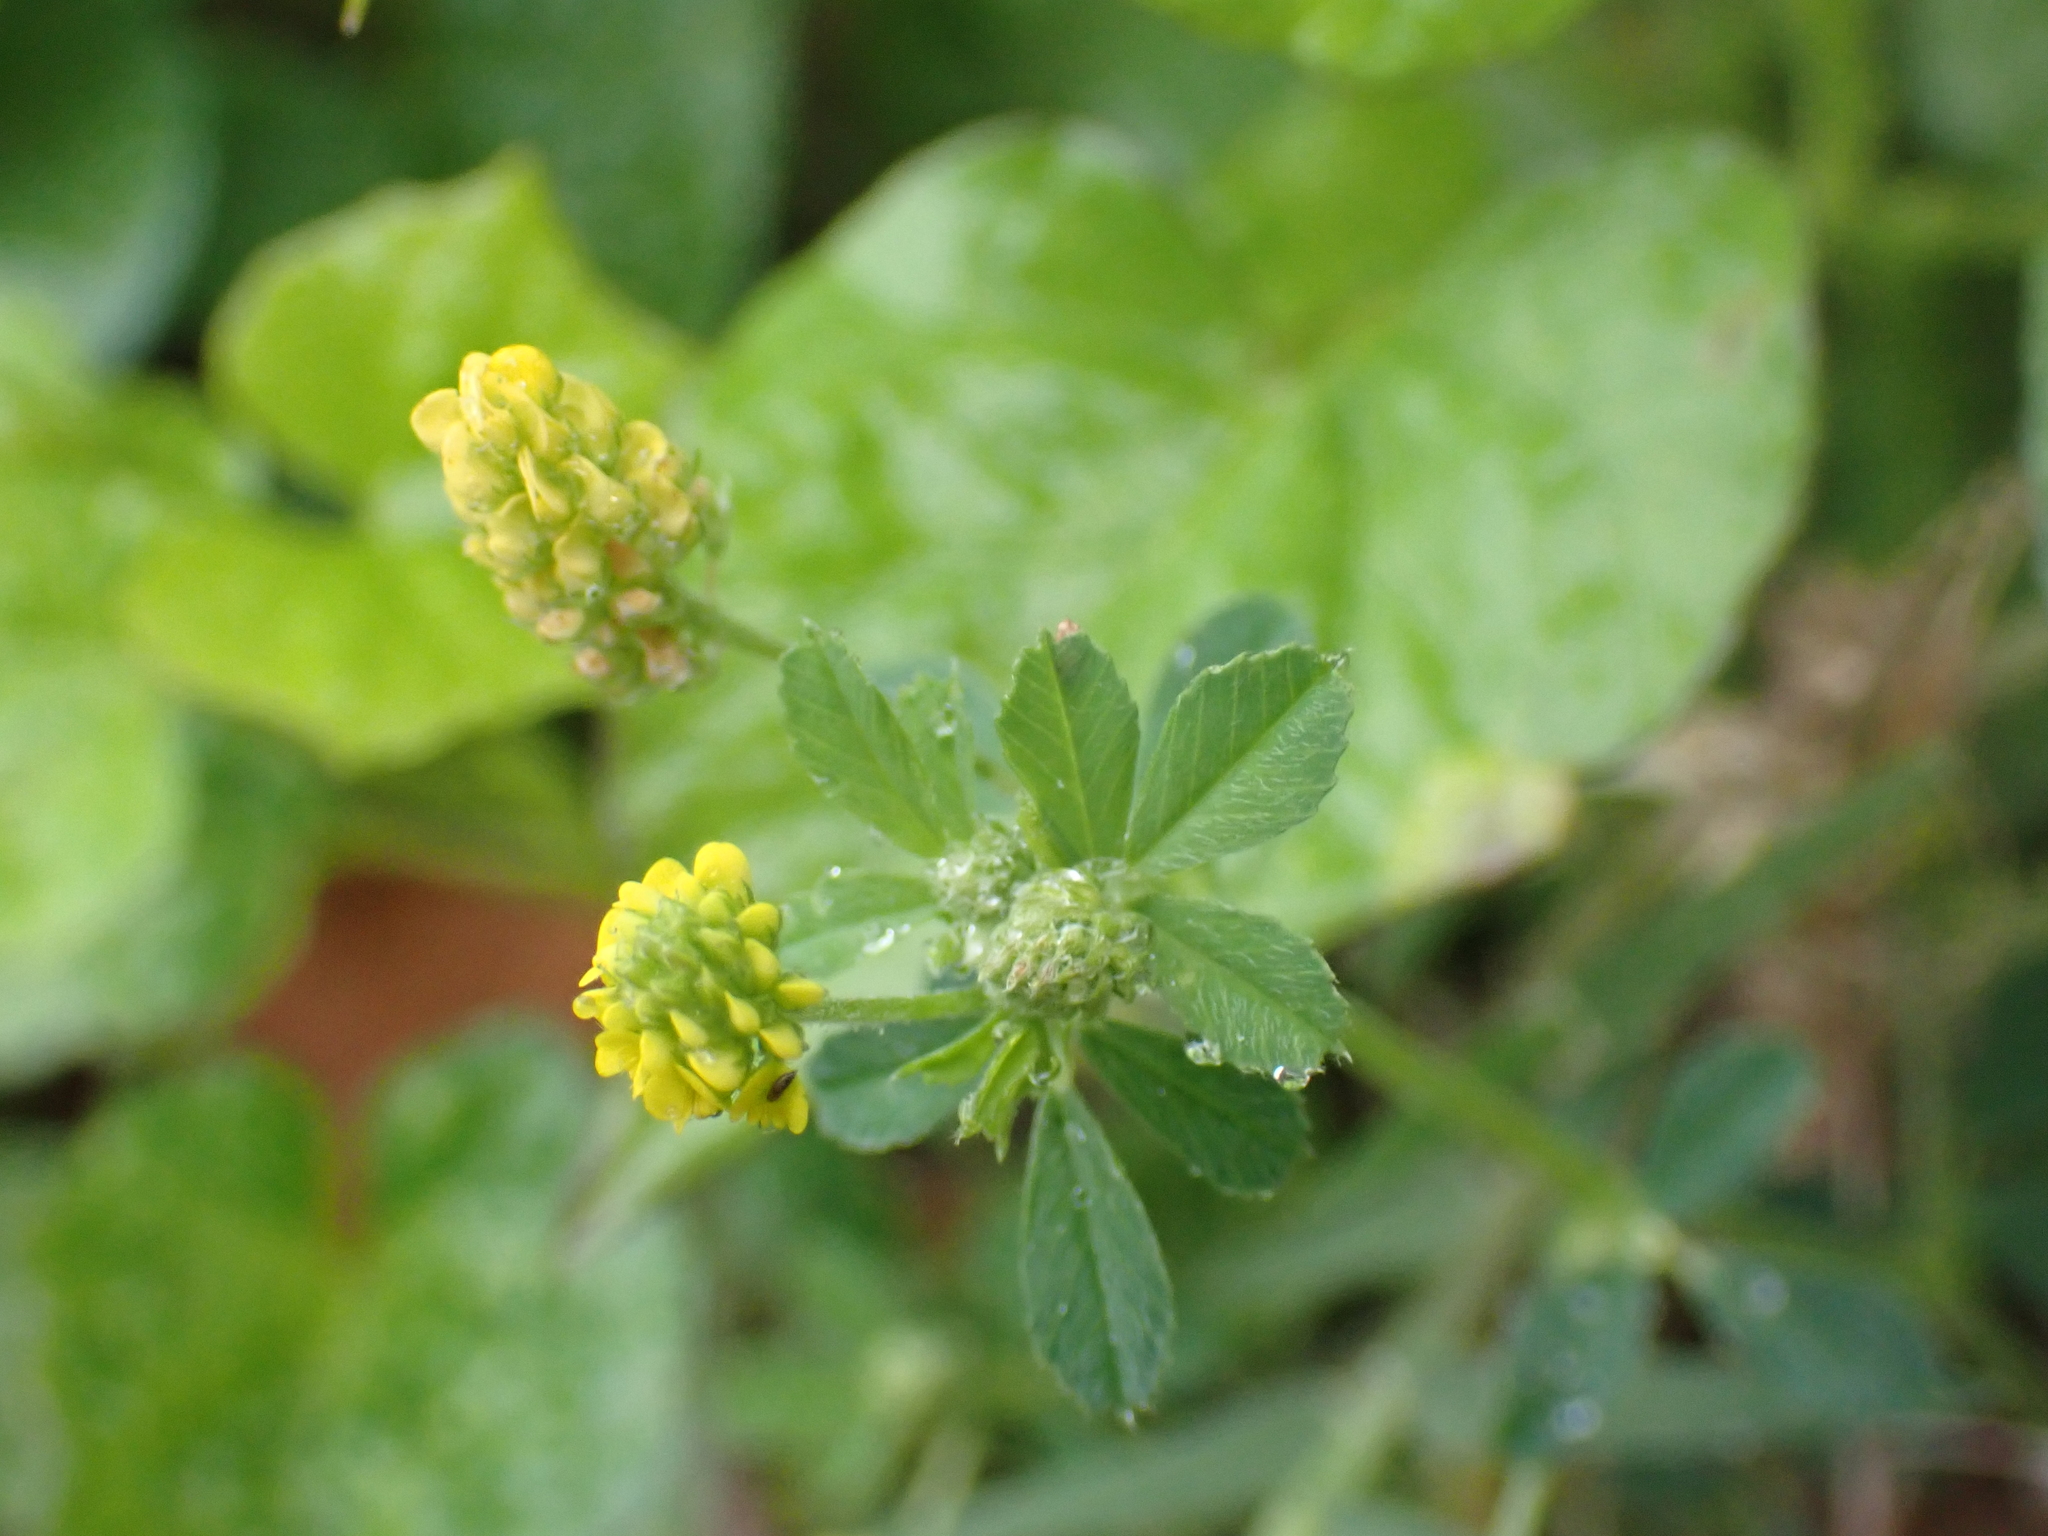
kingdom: Plantae
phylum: Tracheophyta
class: Magnoliopsida
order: Fabales
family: Fabaceae
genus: Medicago
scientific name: Medicago lupulina
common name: Black medick
